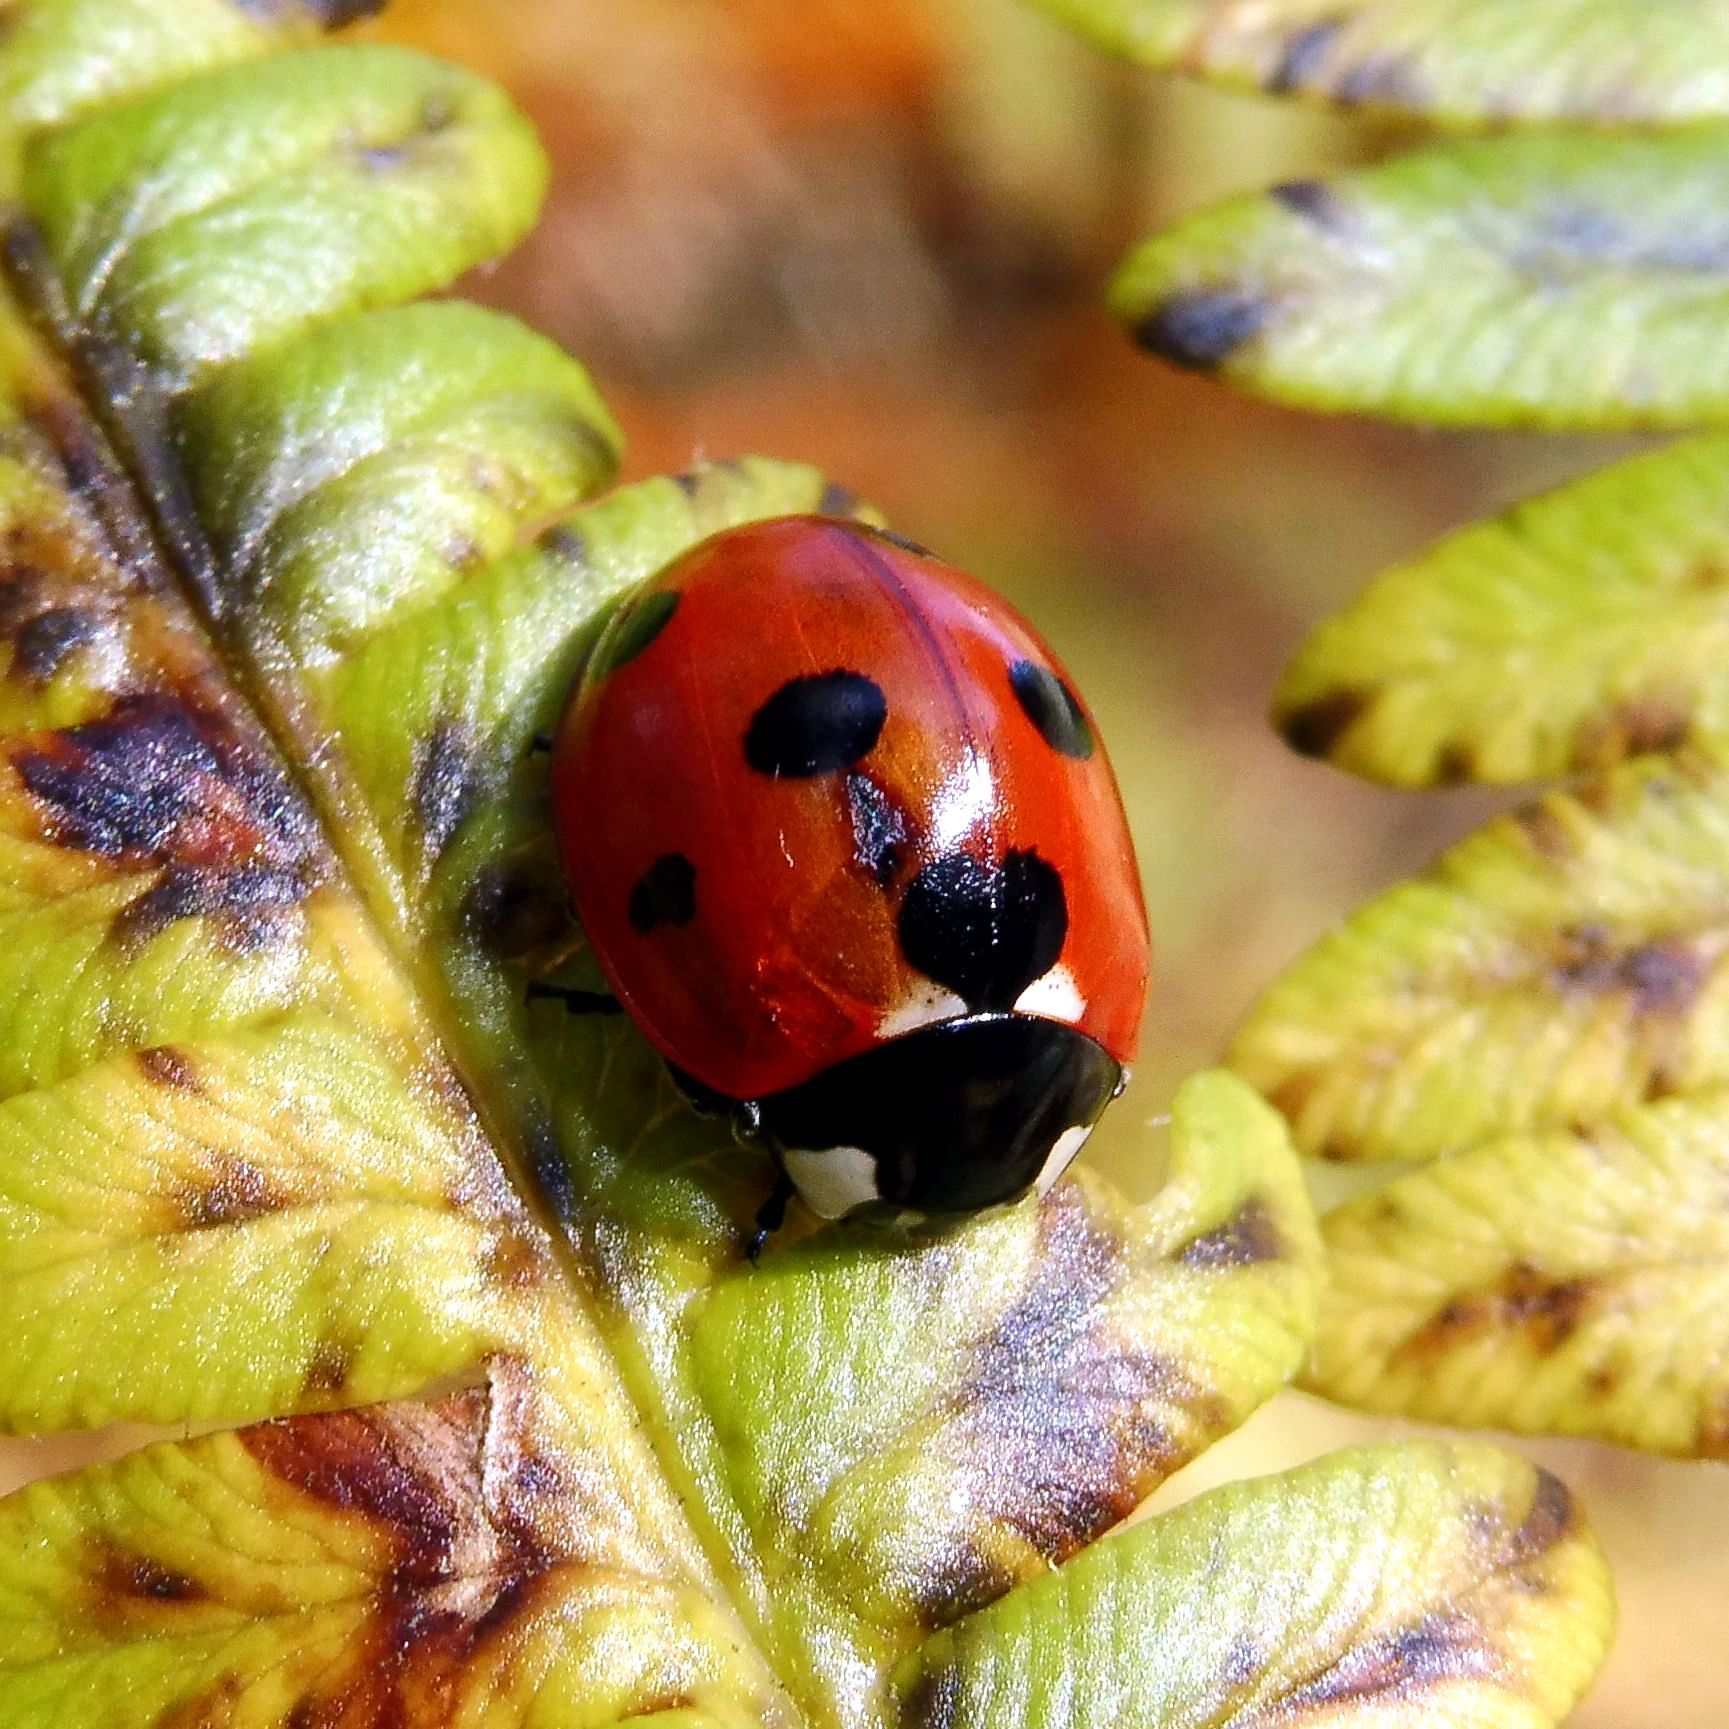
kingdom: Animalia
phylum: Arthropoda
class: Insecta
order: Coleoptera
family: Coccinellidae
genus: Coccinella
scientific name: Coccinella septempunctata
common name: Sevenspotted lady beetle
